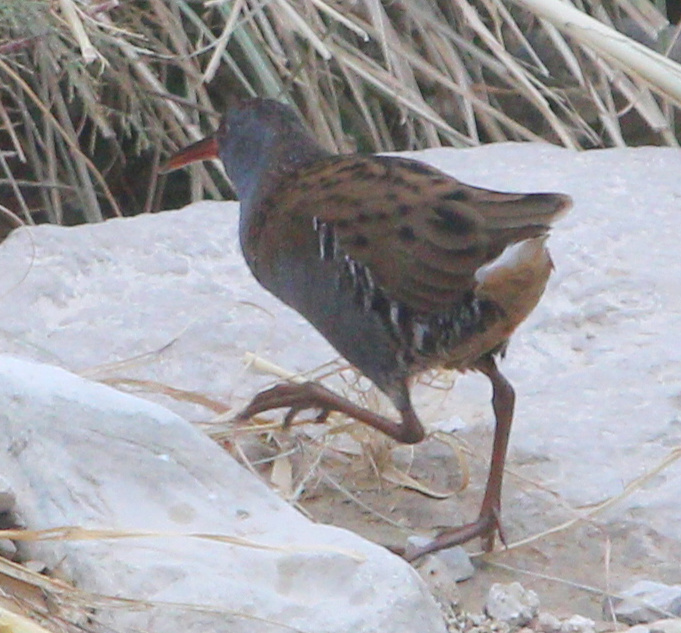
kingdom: Animalia
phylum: Chordata
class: Aves
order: Gruiformes
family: Rallidae
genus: Rallus
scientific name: Rallus aquaticus
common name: Water rail
